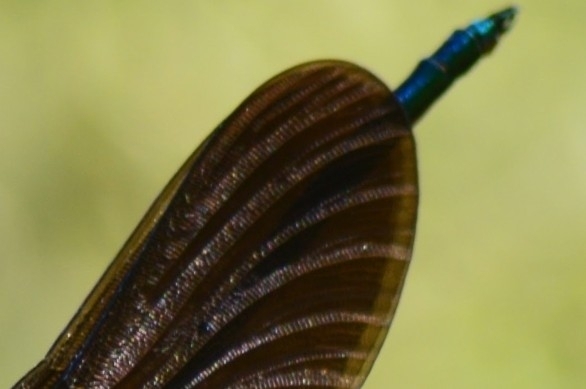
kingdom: Animalia
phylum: Arthropoda
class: Insecta
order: Odonata
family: Calopterygidae
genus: Calopteryx
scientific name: Calopteryx virgo
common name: Beautiful demoiselle
